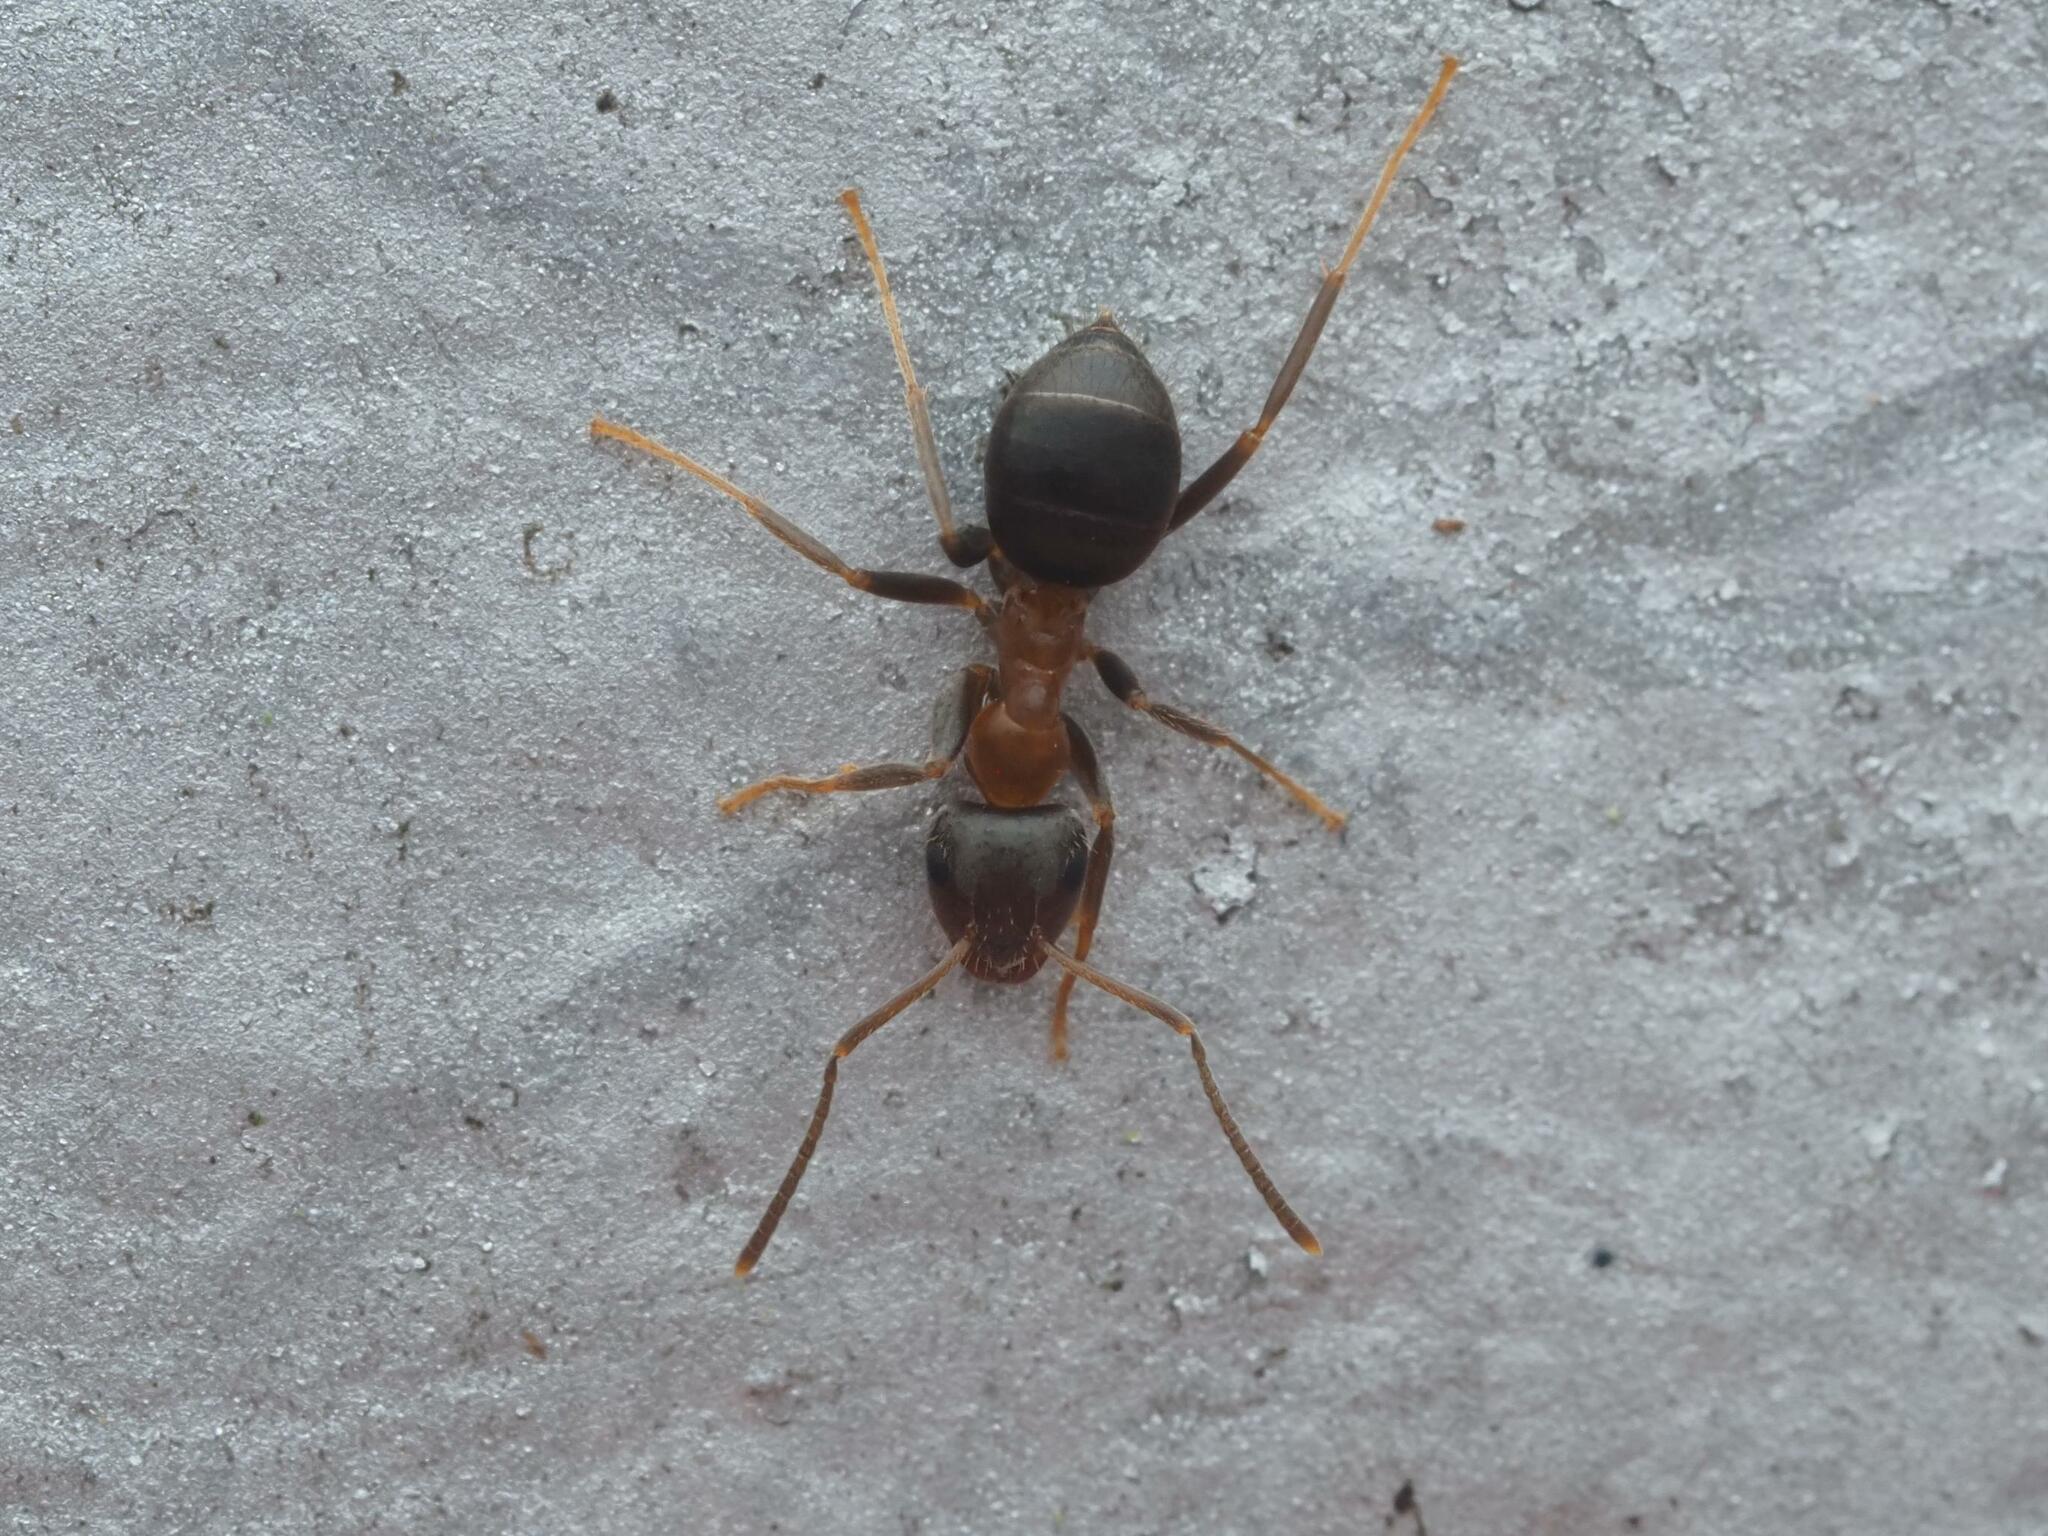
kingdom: Animalia
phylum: Arthropoda
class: Insecta
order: Hymenoptera
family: Formicidae
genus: Lasius
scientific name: Lasius emarginatus
